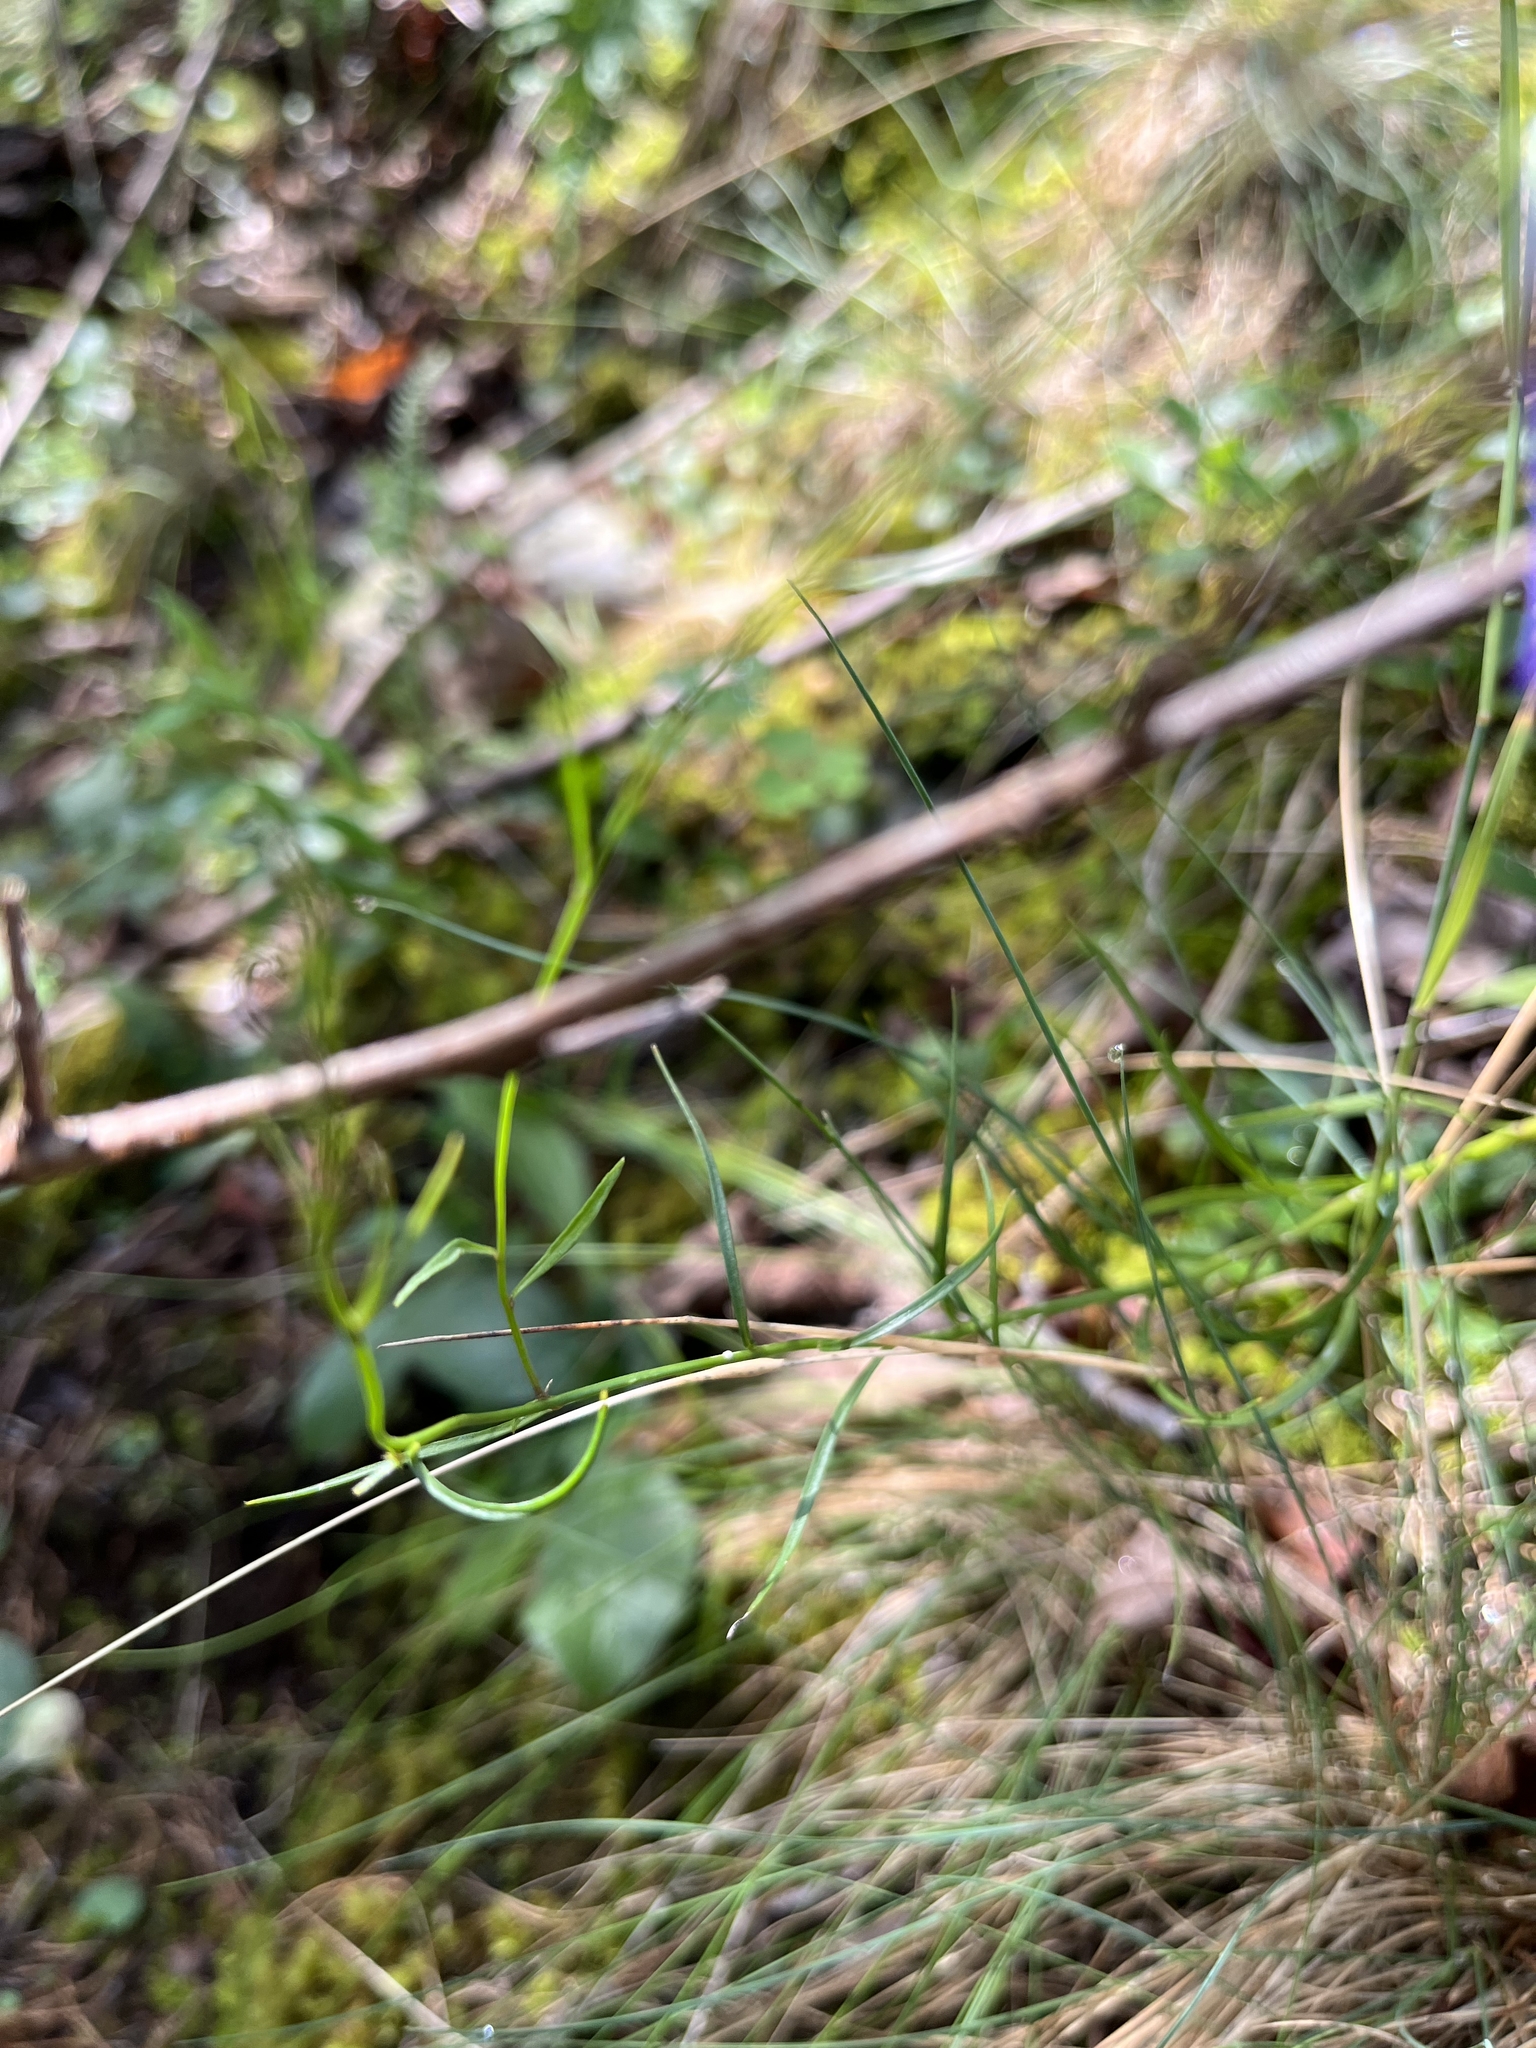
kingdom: Plantae
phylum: Tracheophyta
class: Magnoliopsida
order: Asterales
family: Campanulaceae
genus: Campanula
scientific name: Campanula intercedens
